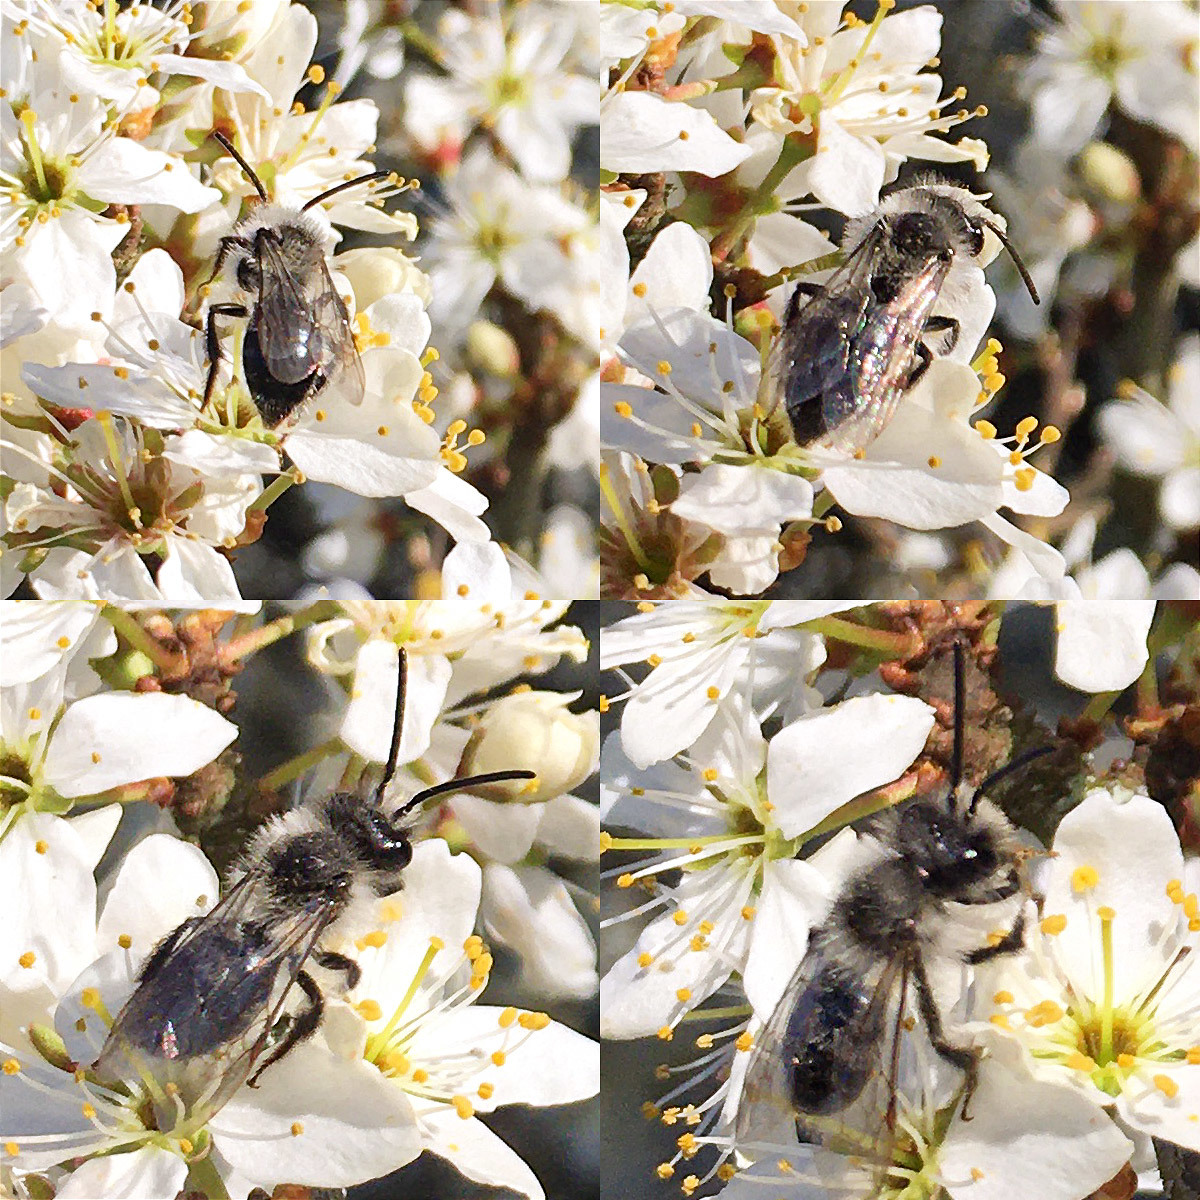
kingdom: Animalia
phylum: Arthropoda
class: Insecta
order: Hymenoptera
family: Andrenidae
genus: Andrena
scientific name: Andrena cineraria
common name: Ashy mining bee
